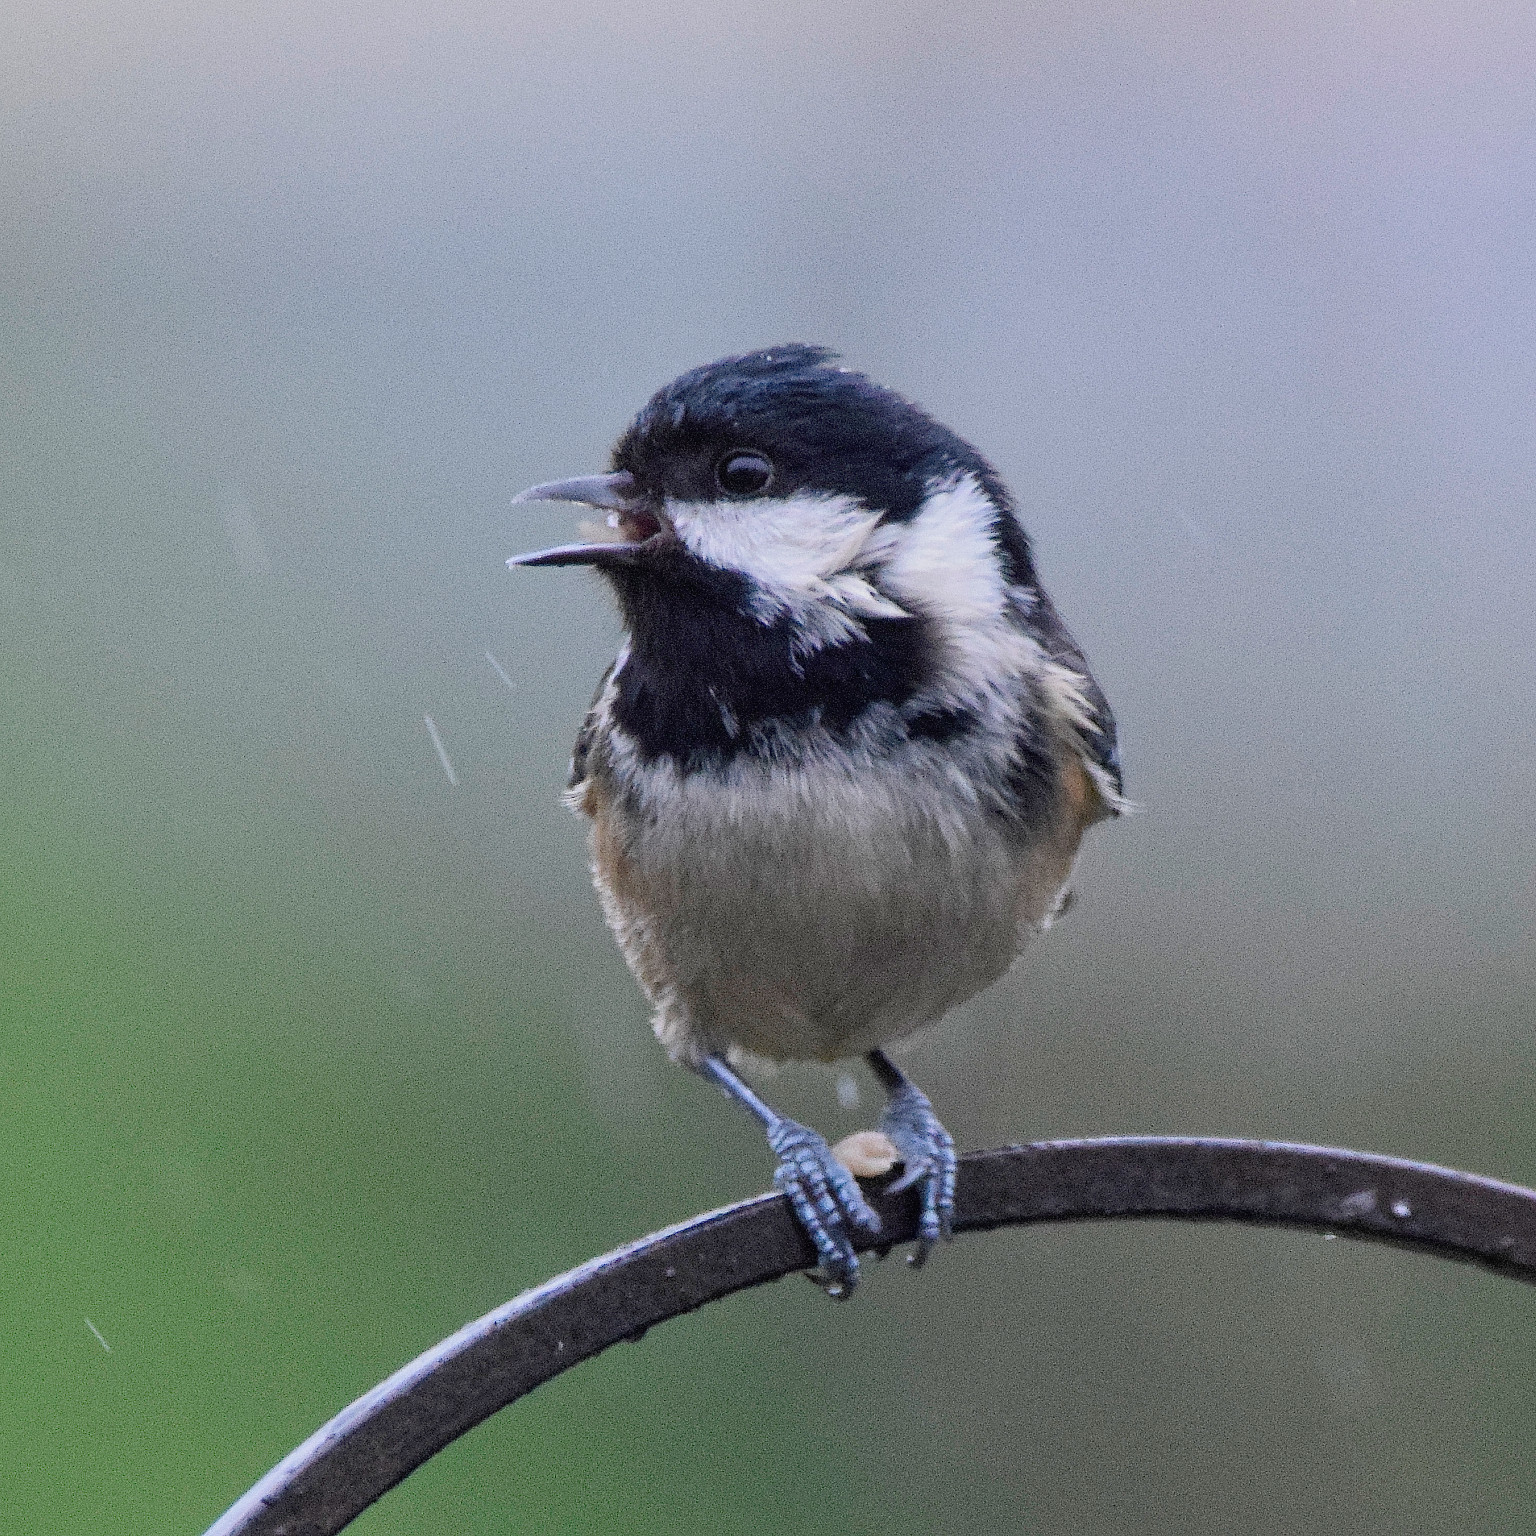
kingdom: Animalia
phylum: Chordata
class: Aves
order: Passeriformes
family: Paridae
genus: Periparus
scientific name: Periparus ater
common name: Coal tit
